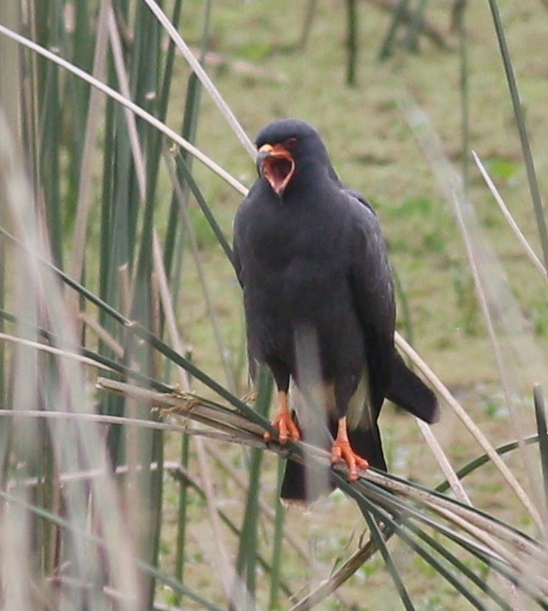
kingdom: Animalia
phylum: Chordata
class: Aves
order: Accipitriformes
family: Accipitridae
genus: Rostrhamus
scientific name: Rostrhamus sociabilis
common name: Snail kite
